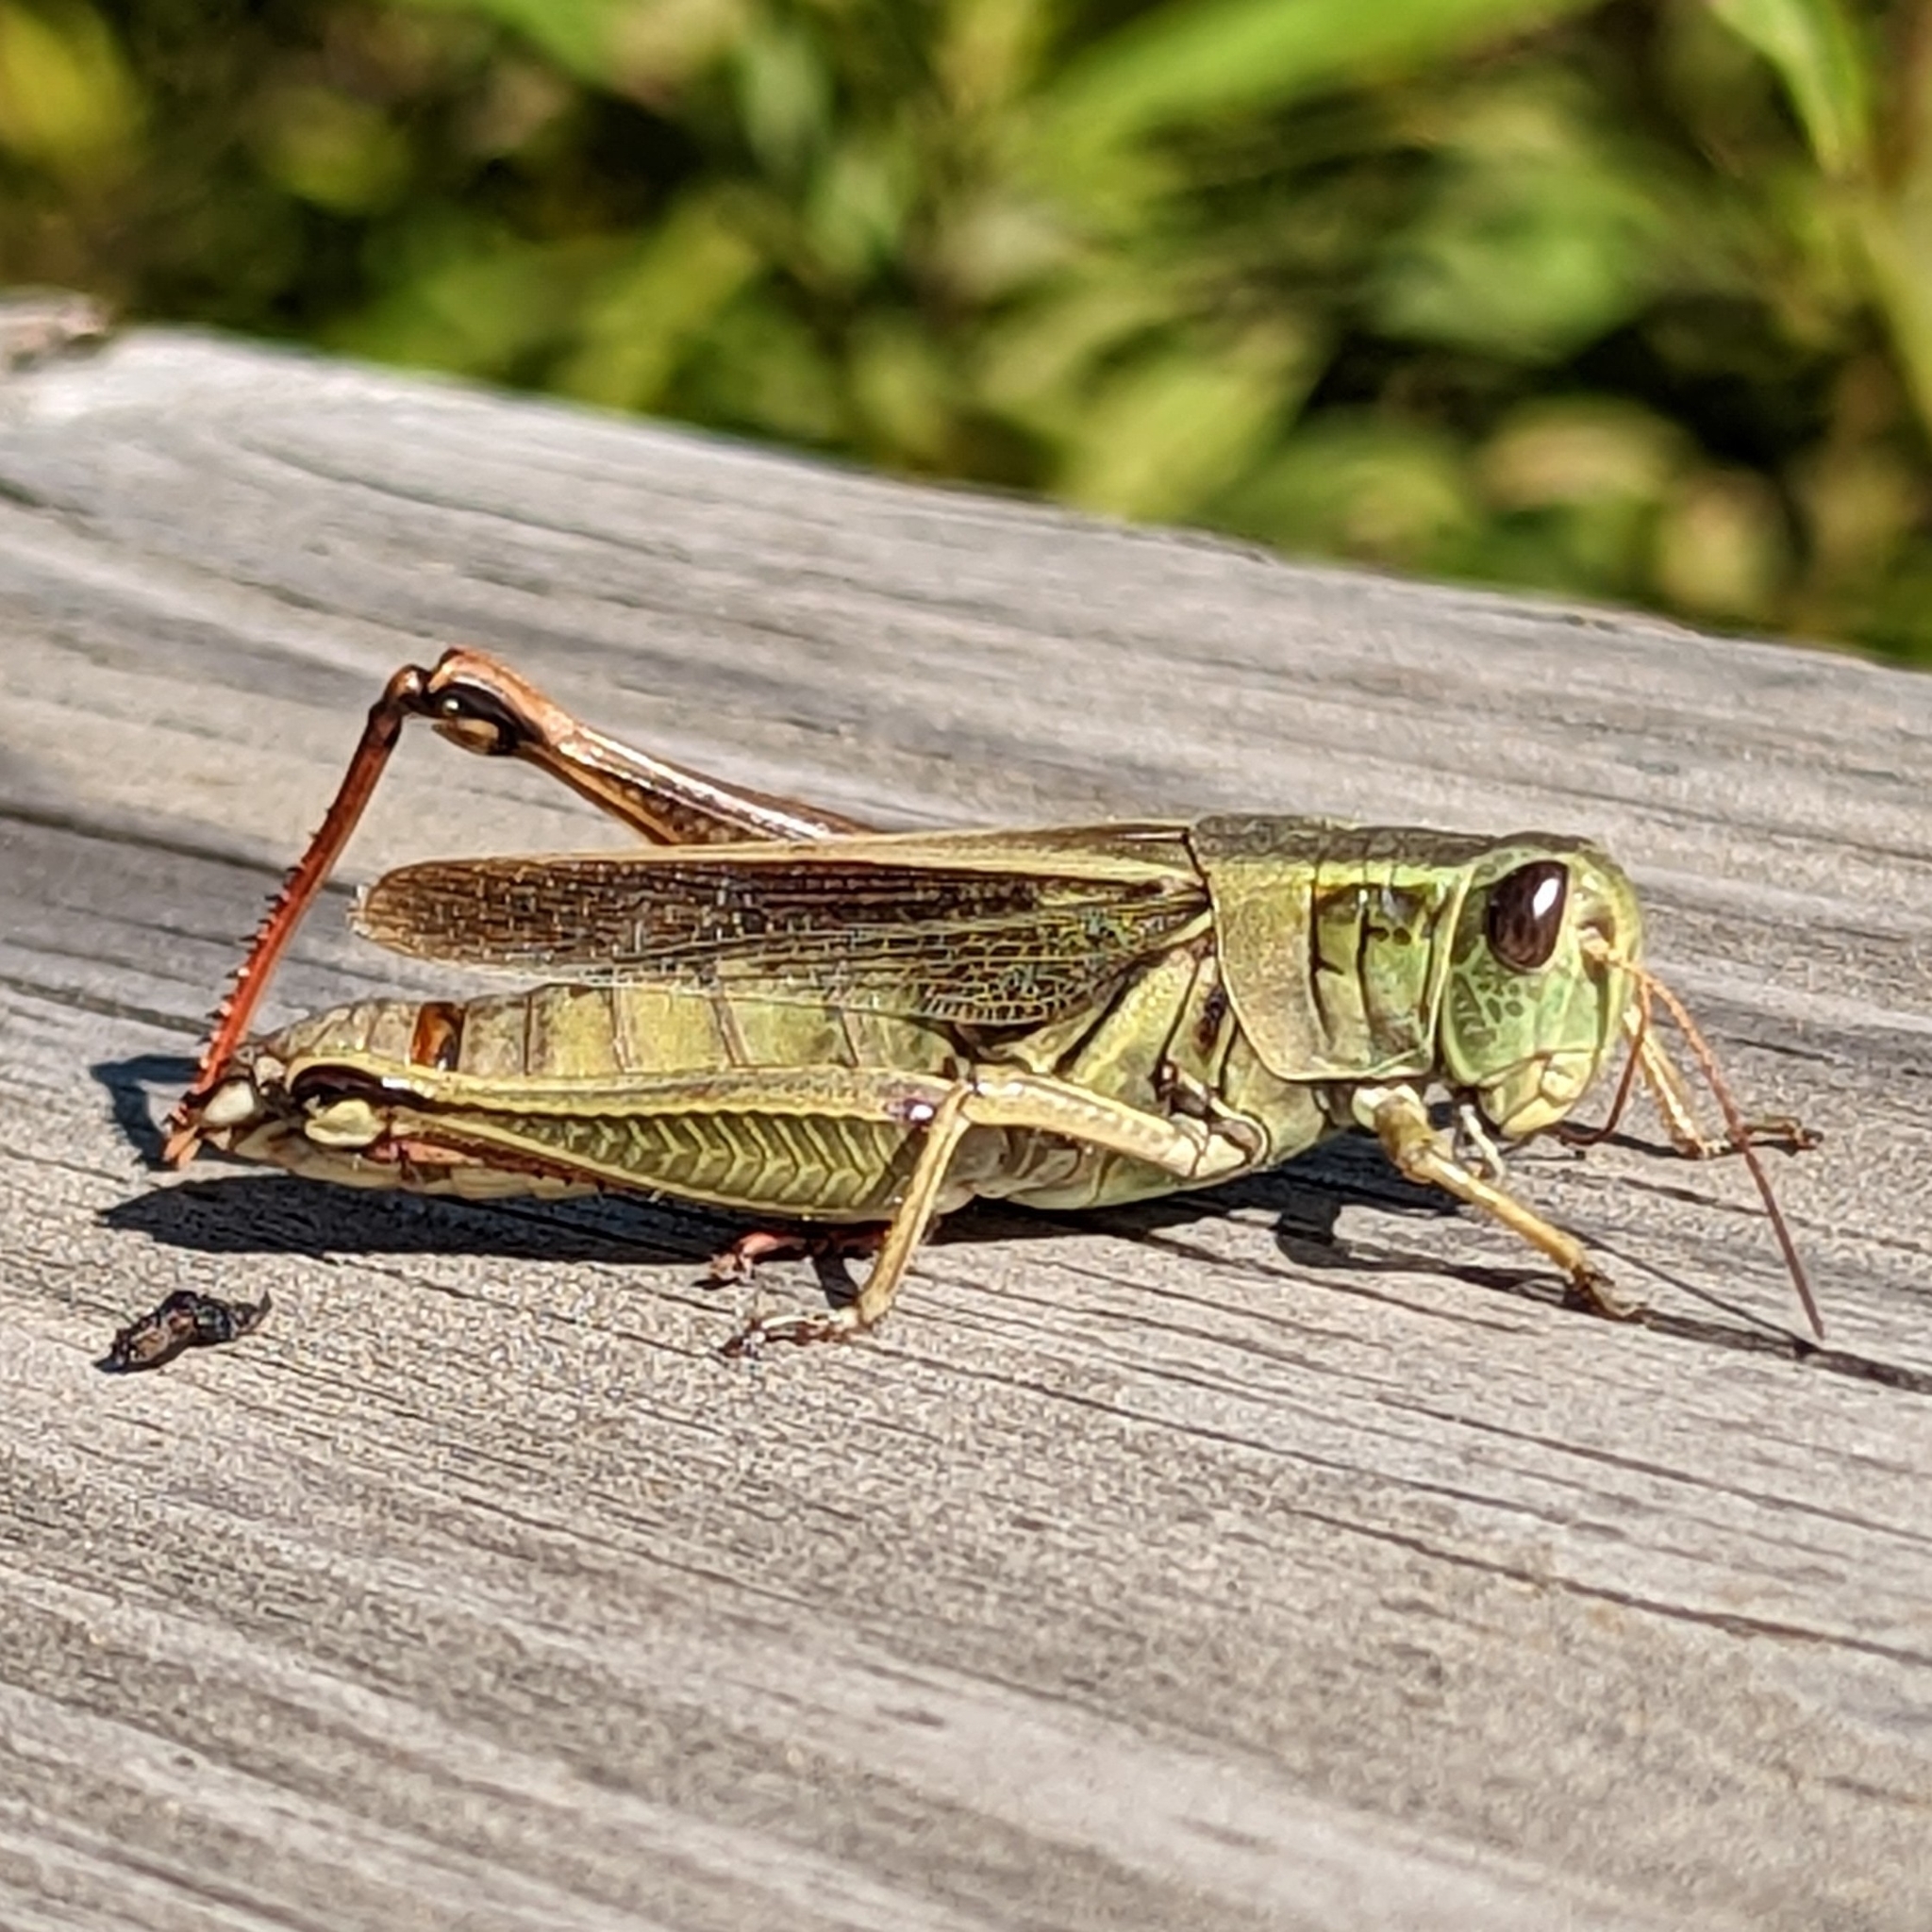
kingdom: Animalia
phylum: Arthropoda
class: Insecta
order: Orthoptera
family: Acrididae
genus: Melanoplus
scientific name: Melanoplus bivittatus
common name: Two-striped grasshopper
